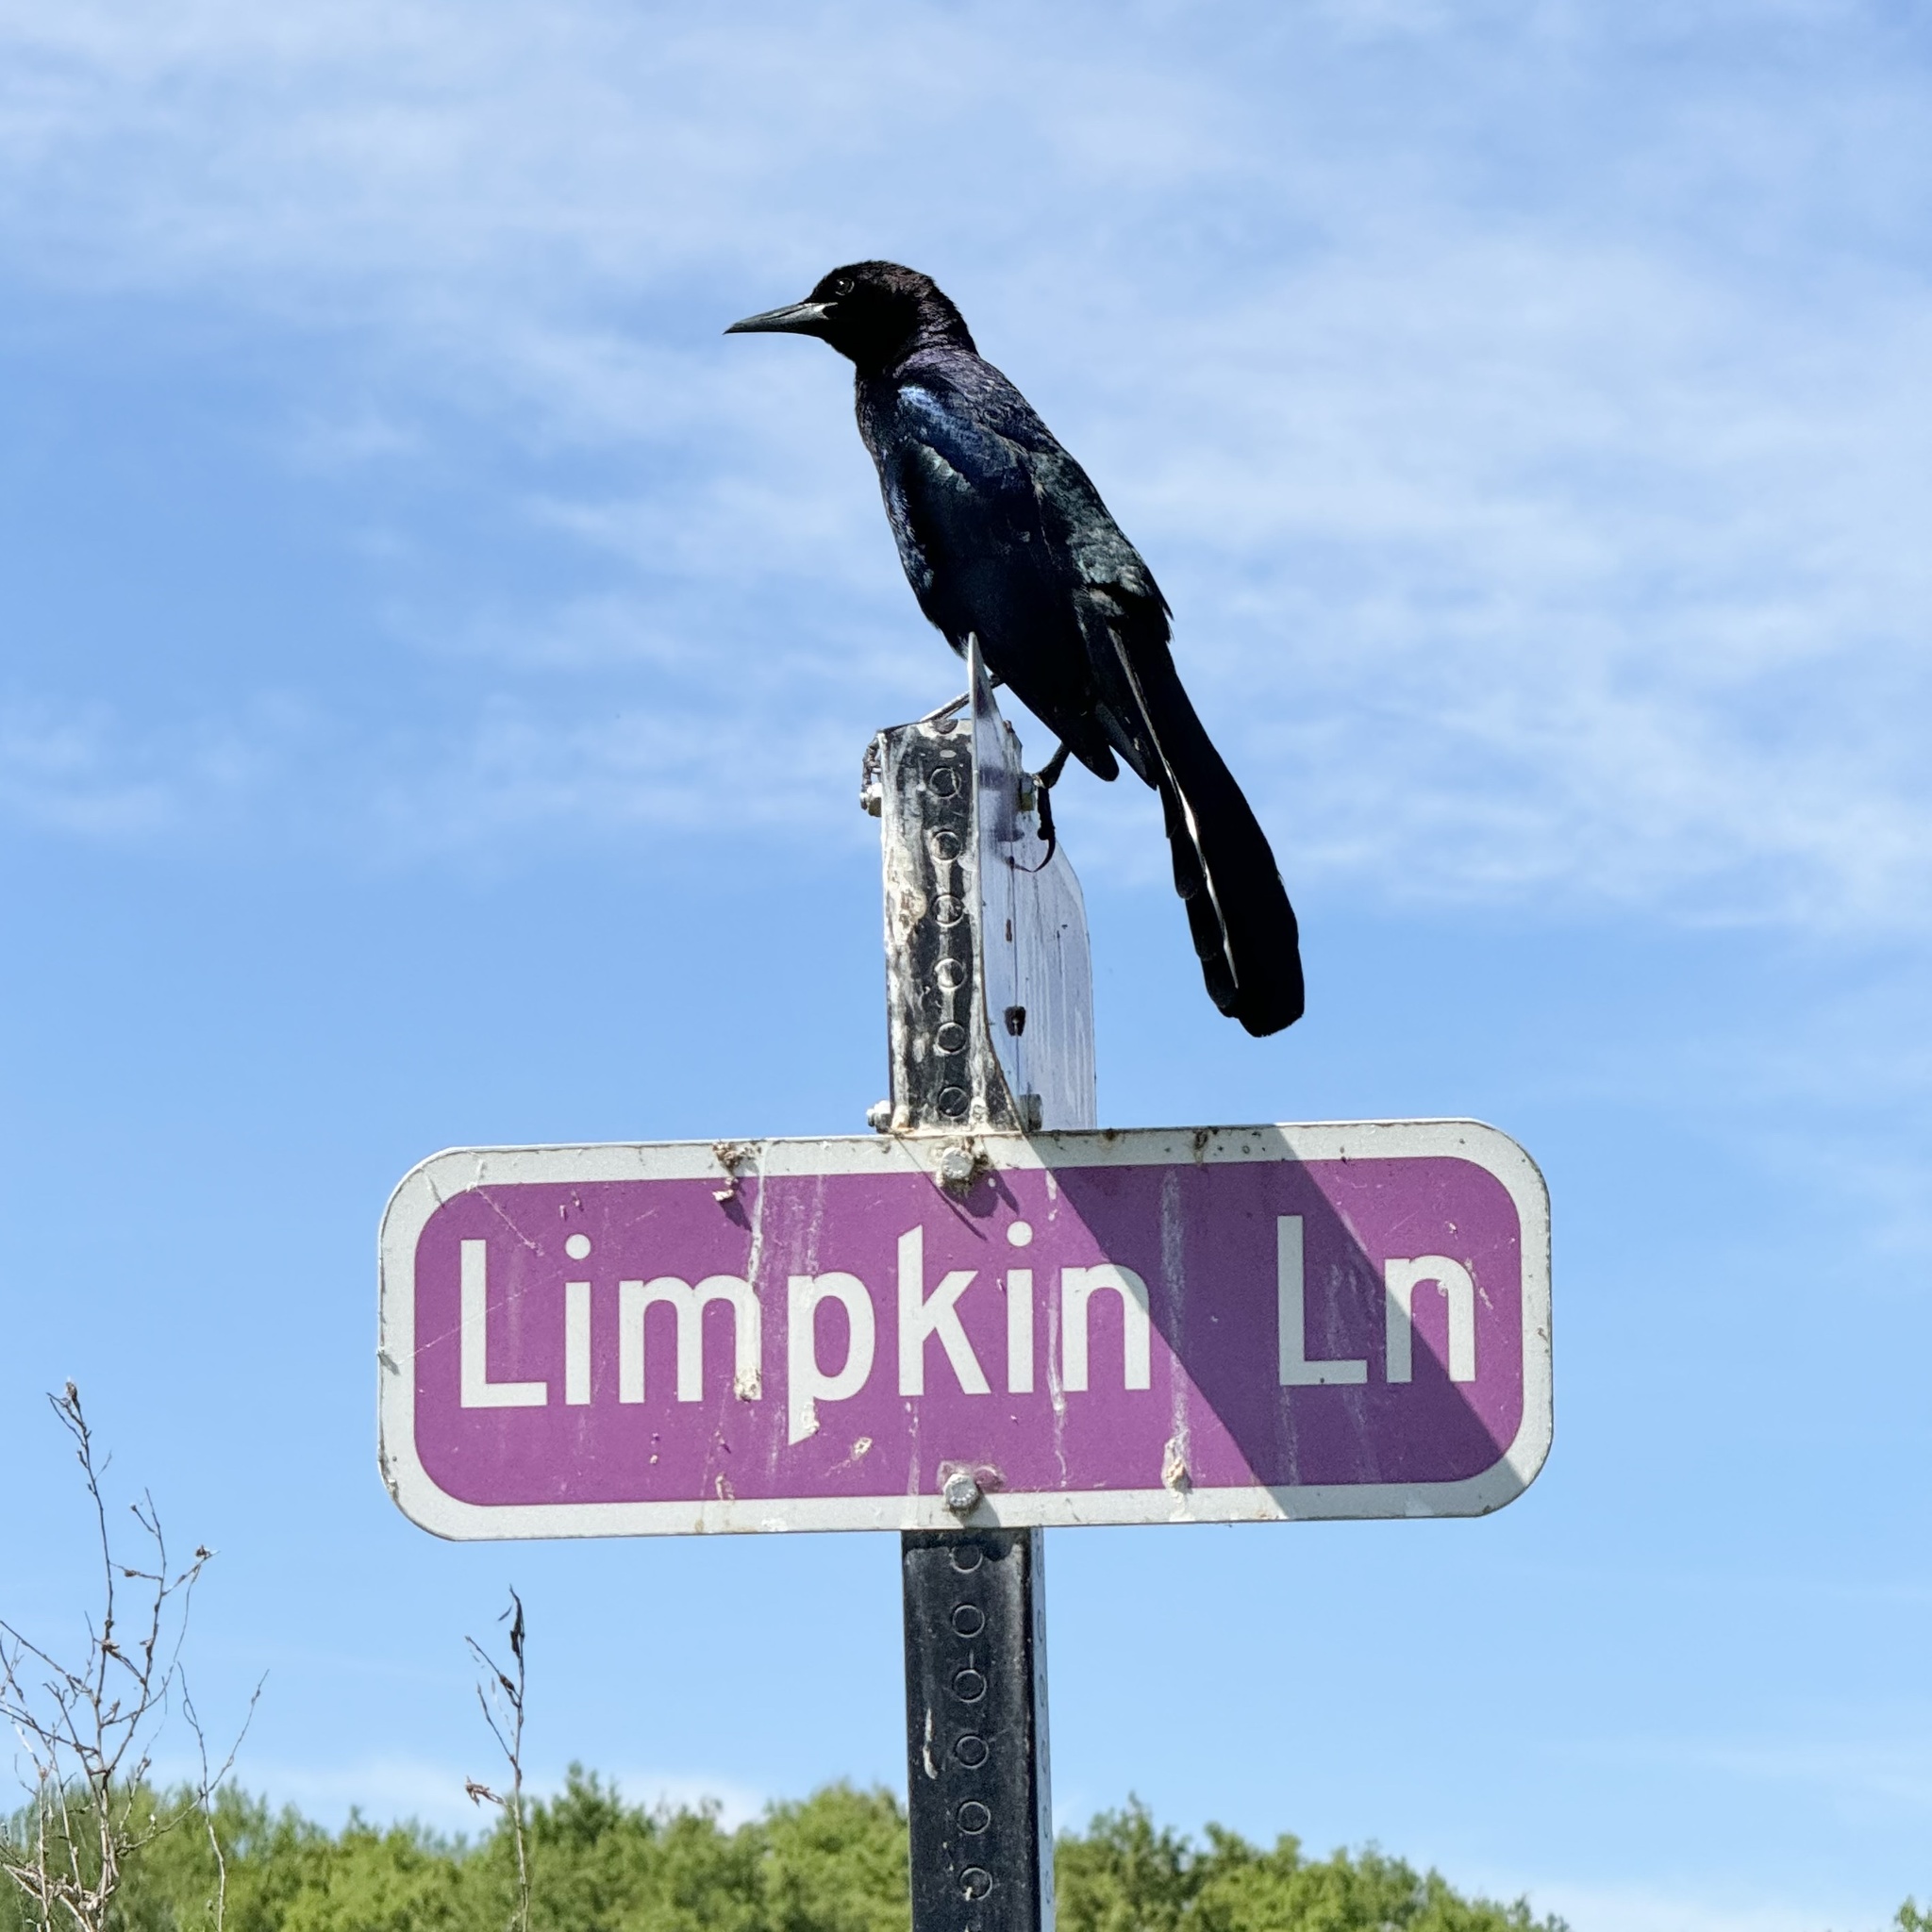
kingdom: Animalia
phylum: Chordata
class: Aves
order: Passeriformes
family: Icteridae
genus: Quiscalus
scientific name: Quiscalus major
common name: Boat-tailed grackle
